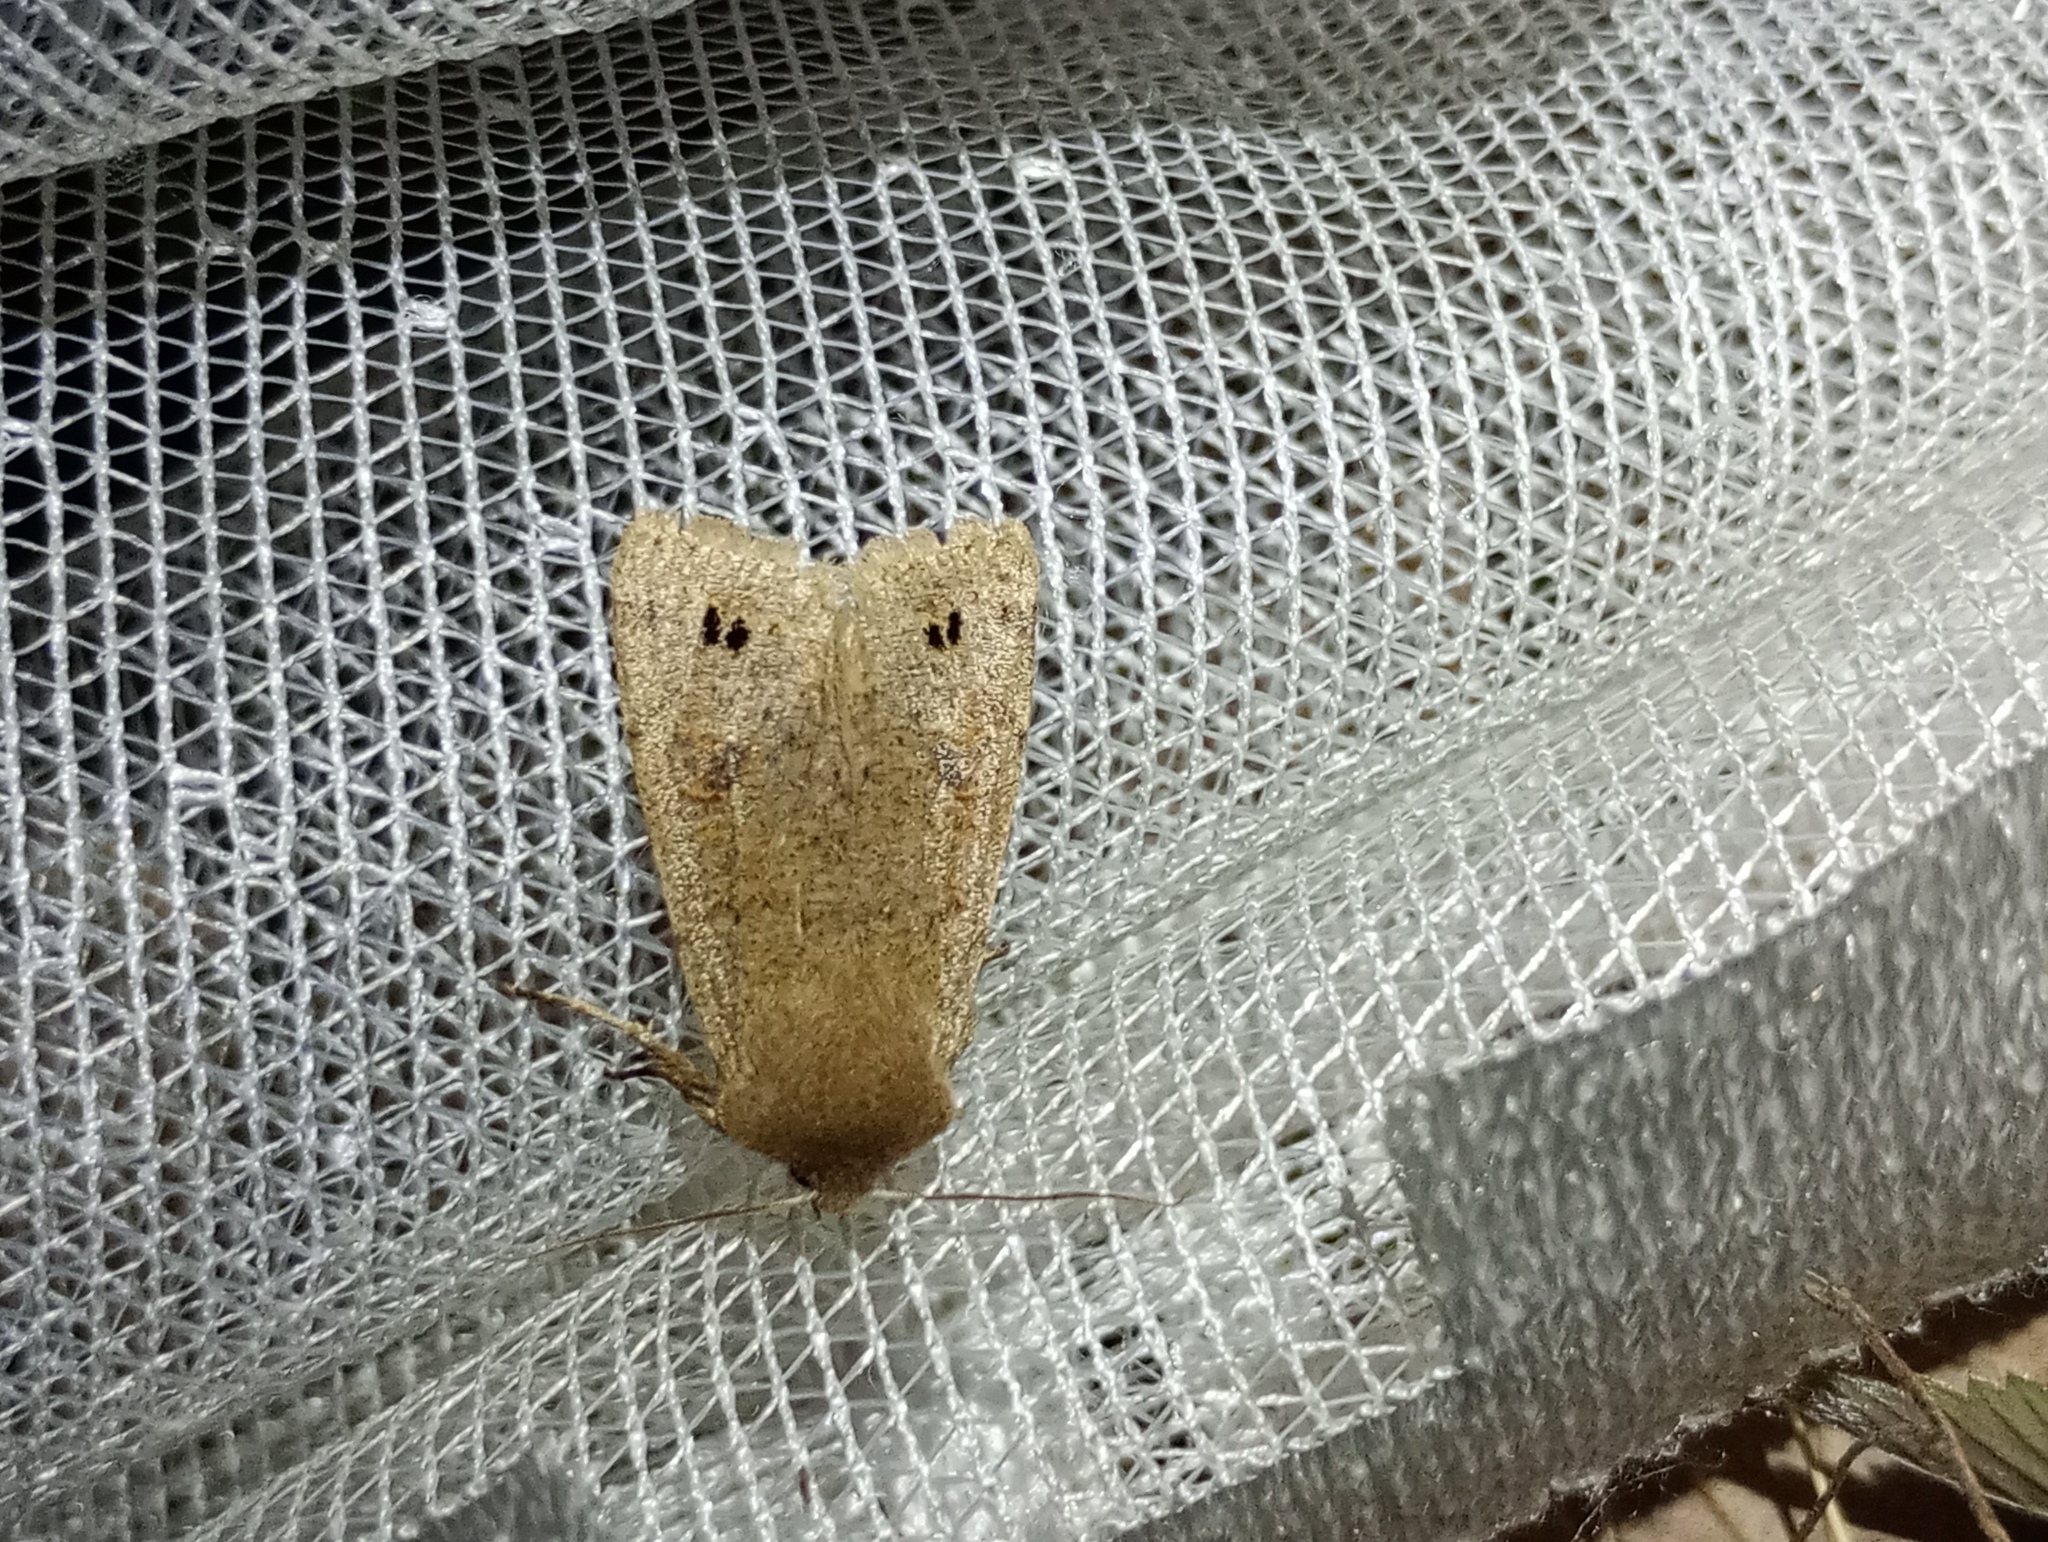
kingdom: Animalia
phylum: Arthropoda
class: Insecta
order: Lepidoptera
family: Noctuidae
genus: Anorthoa
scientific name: Anorthoa munda
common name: Twin-spotted quaker
